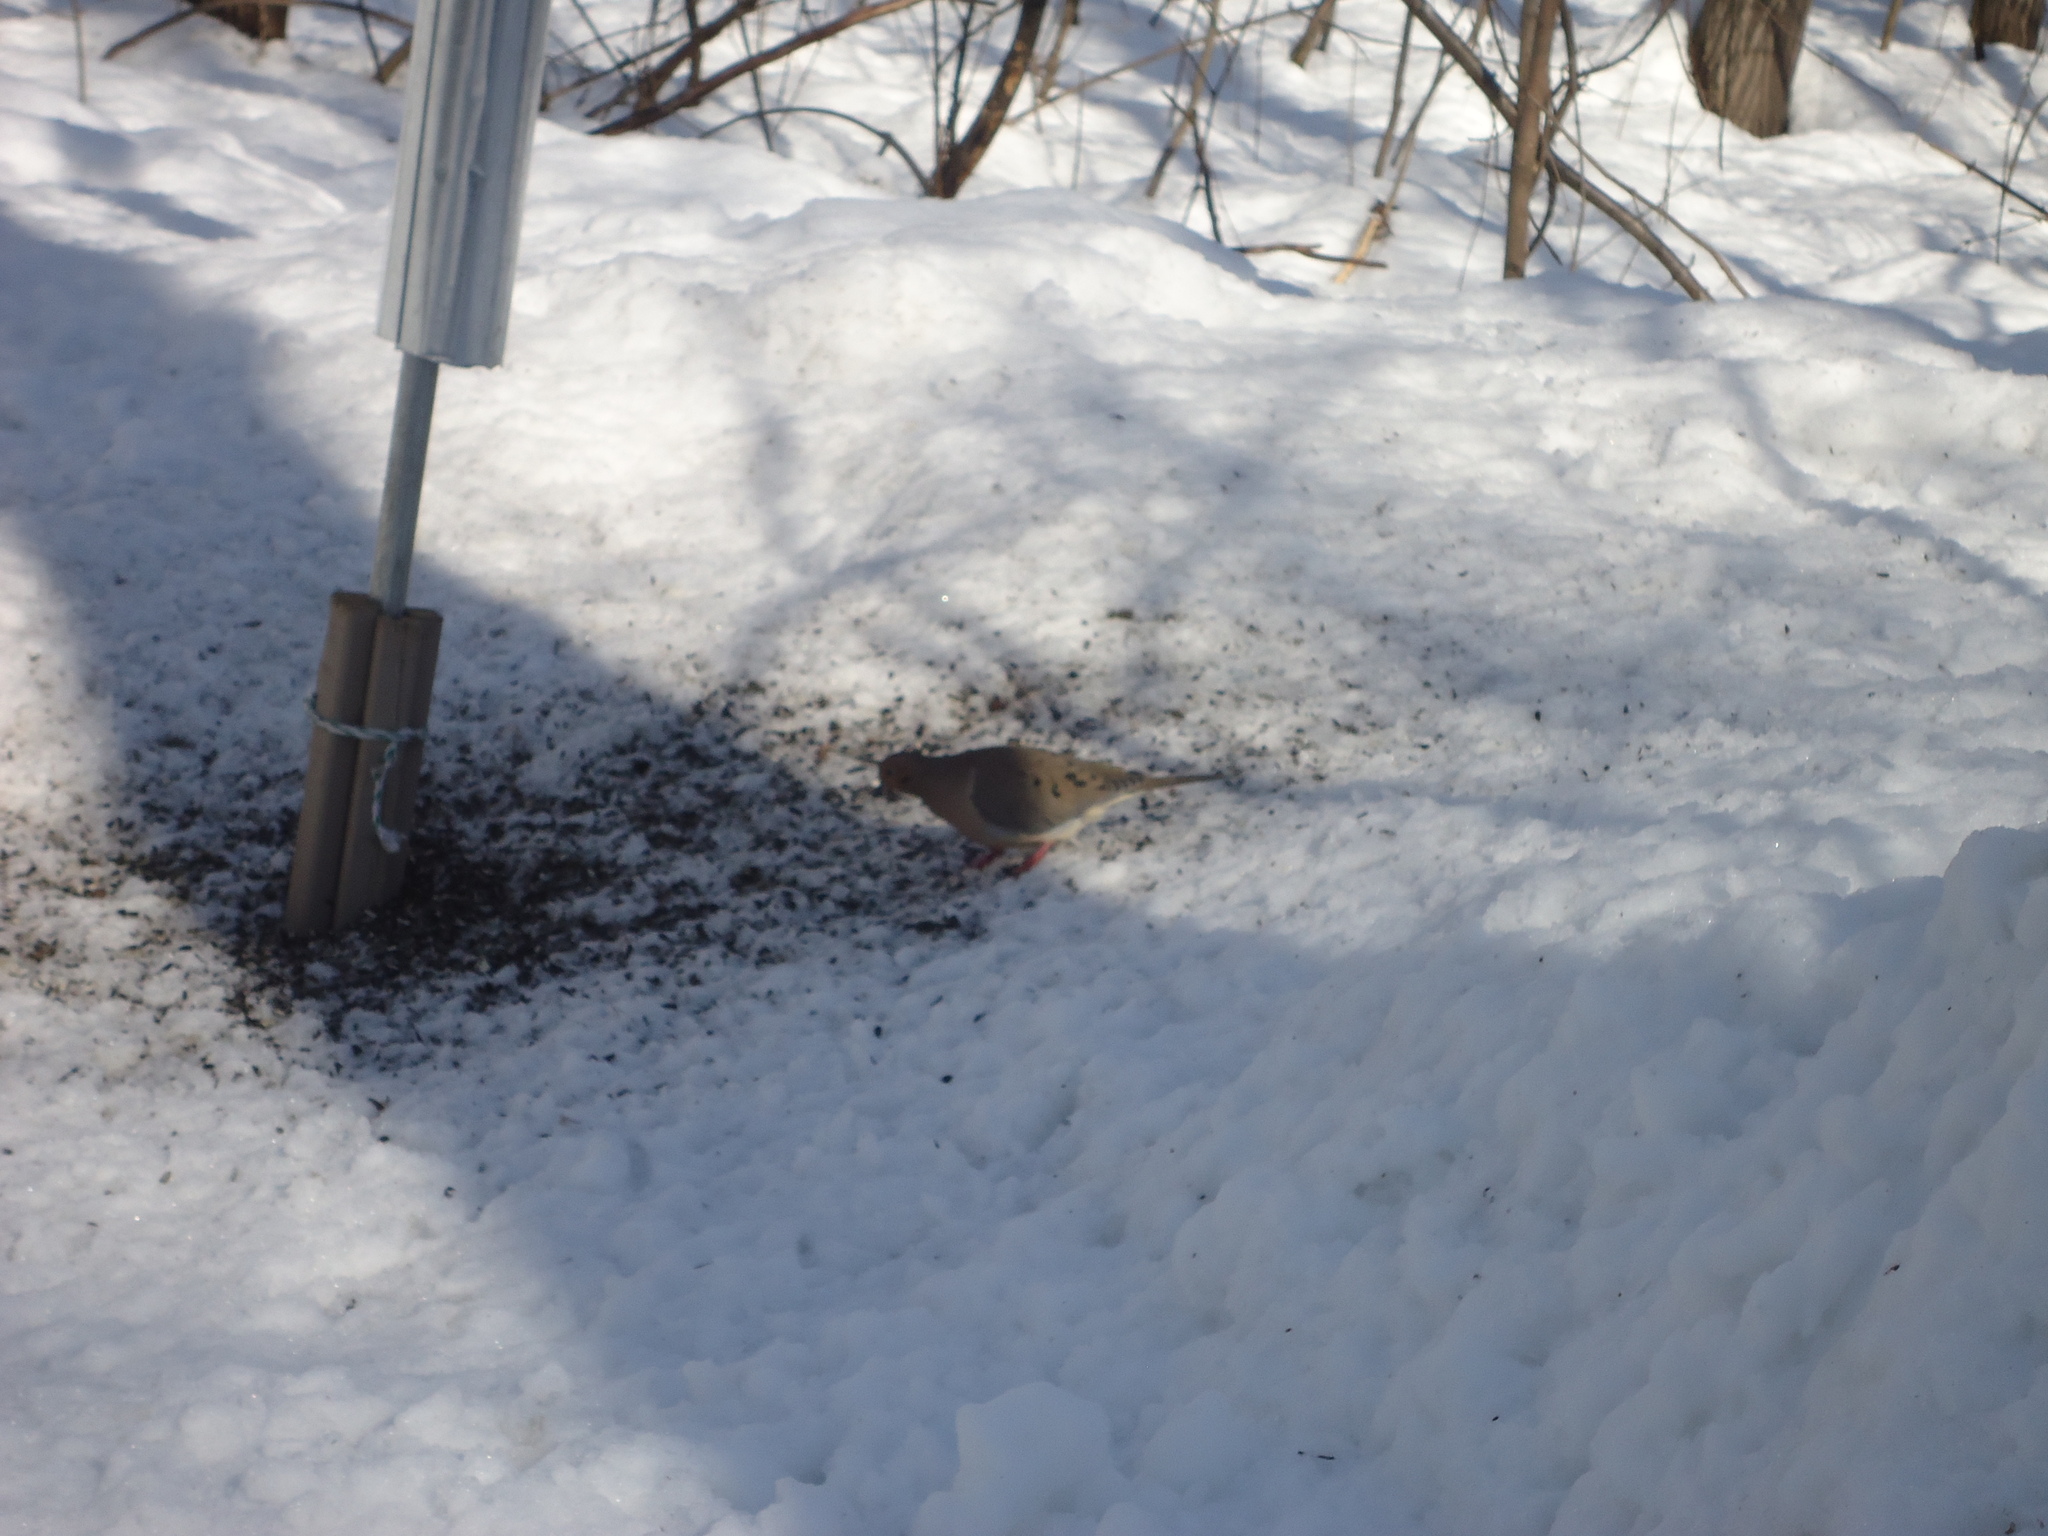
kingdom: Animalia
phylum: Chordata
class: Aves
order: Columbiformes
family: Columbidae
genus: Zenaida
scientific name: Zenaida macroura
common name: Mourning dove
